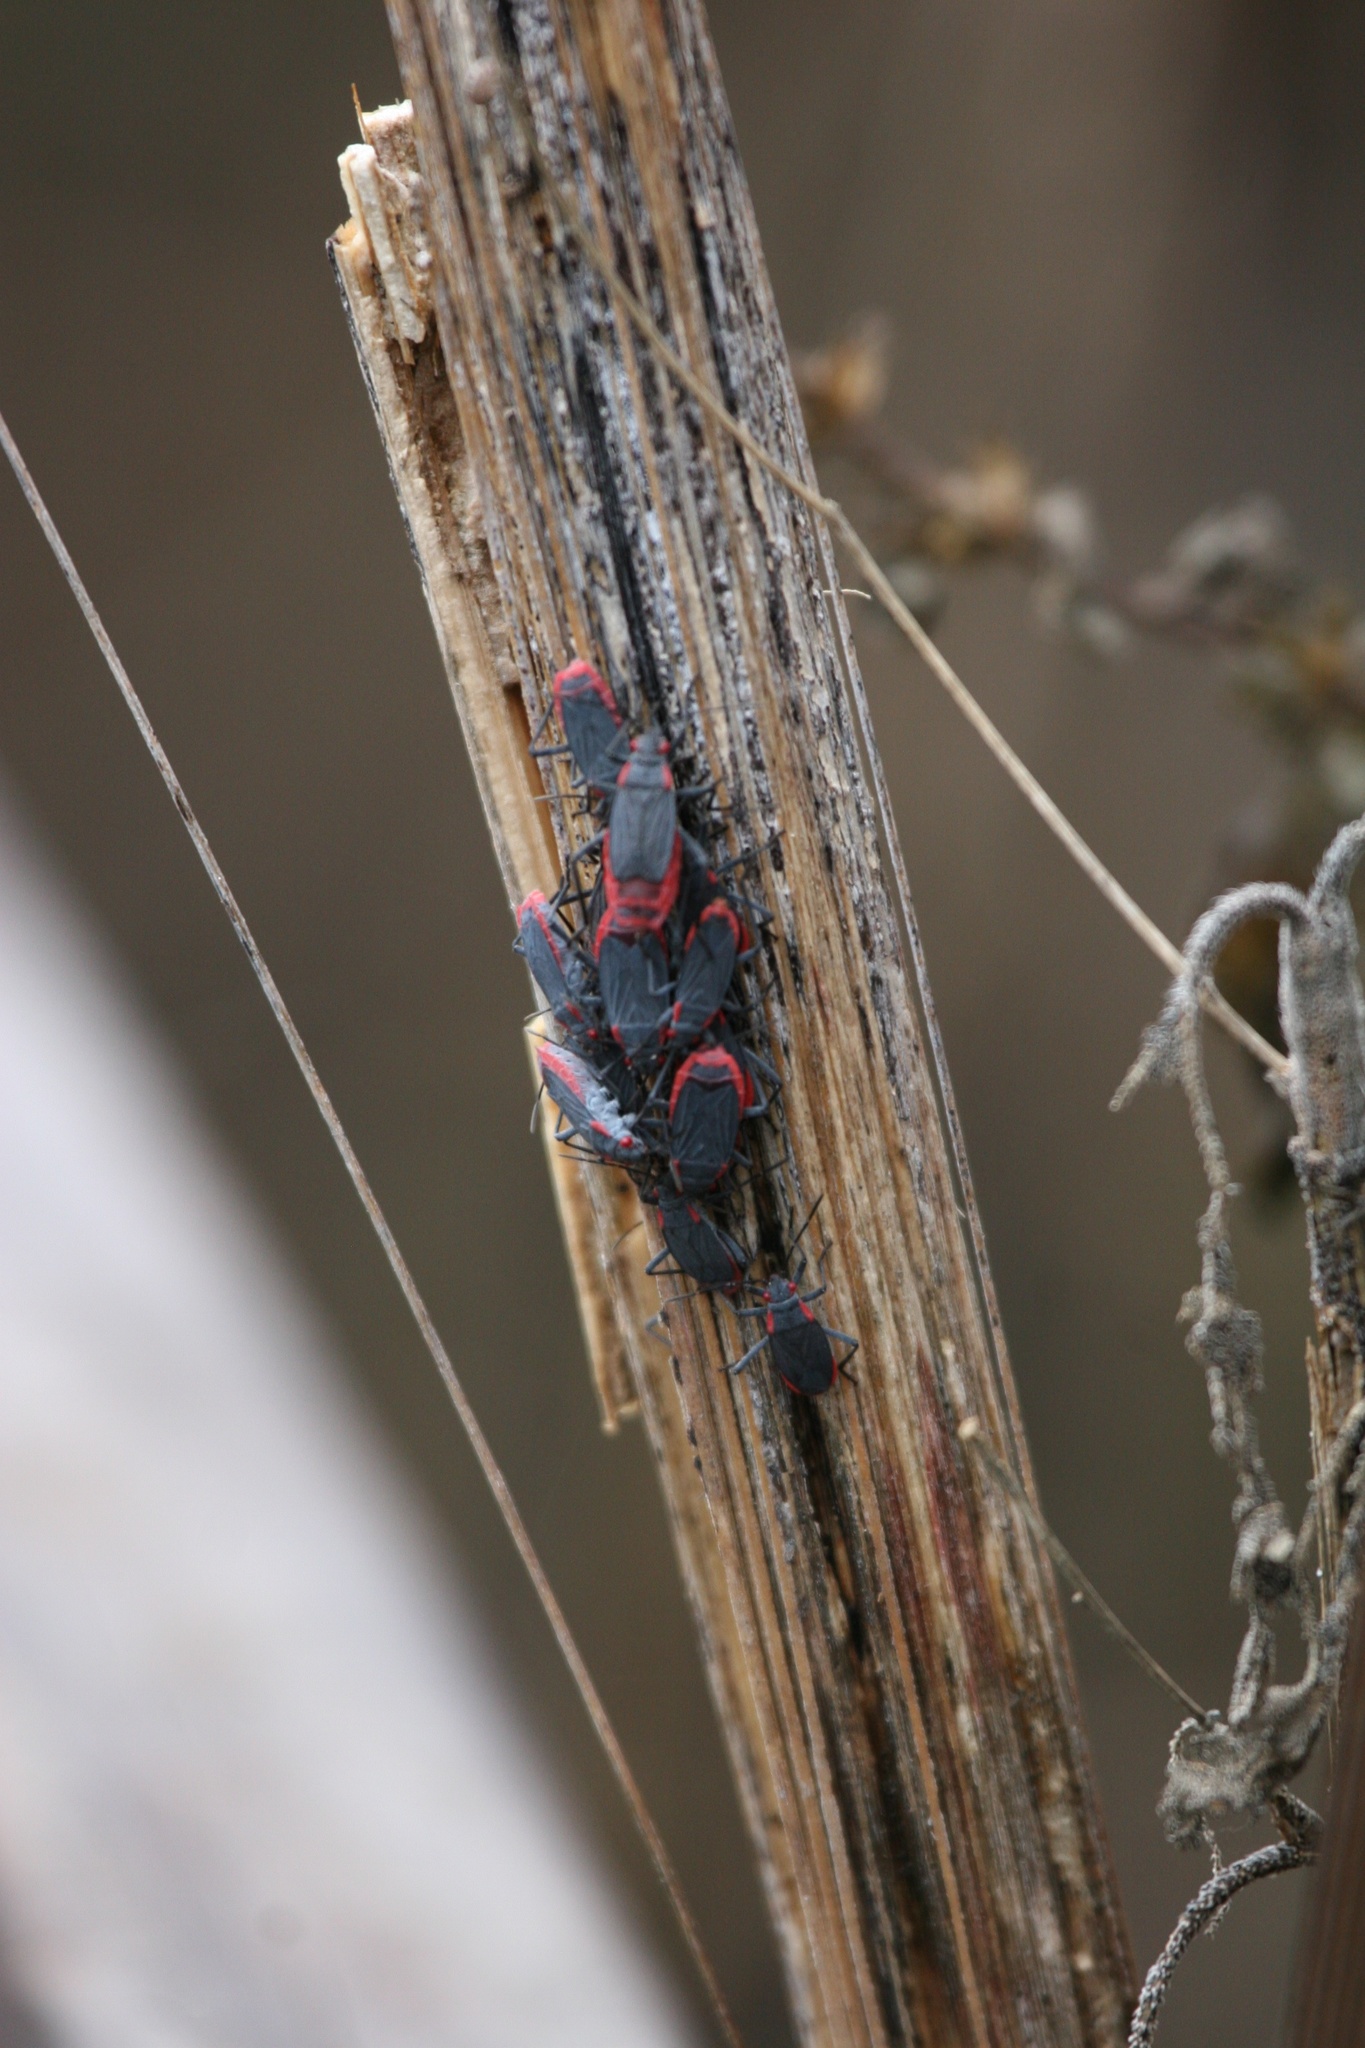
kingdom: Animalia
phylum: Arthropoda
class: Insecta
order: Hemiptera
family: Rhopalidae
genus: Jadera
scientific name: Jadera haematoloma
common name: Red-shouldered bug
